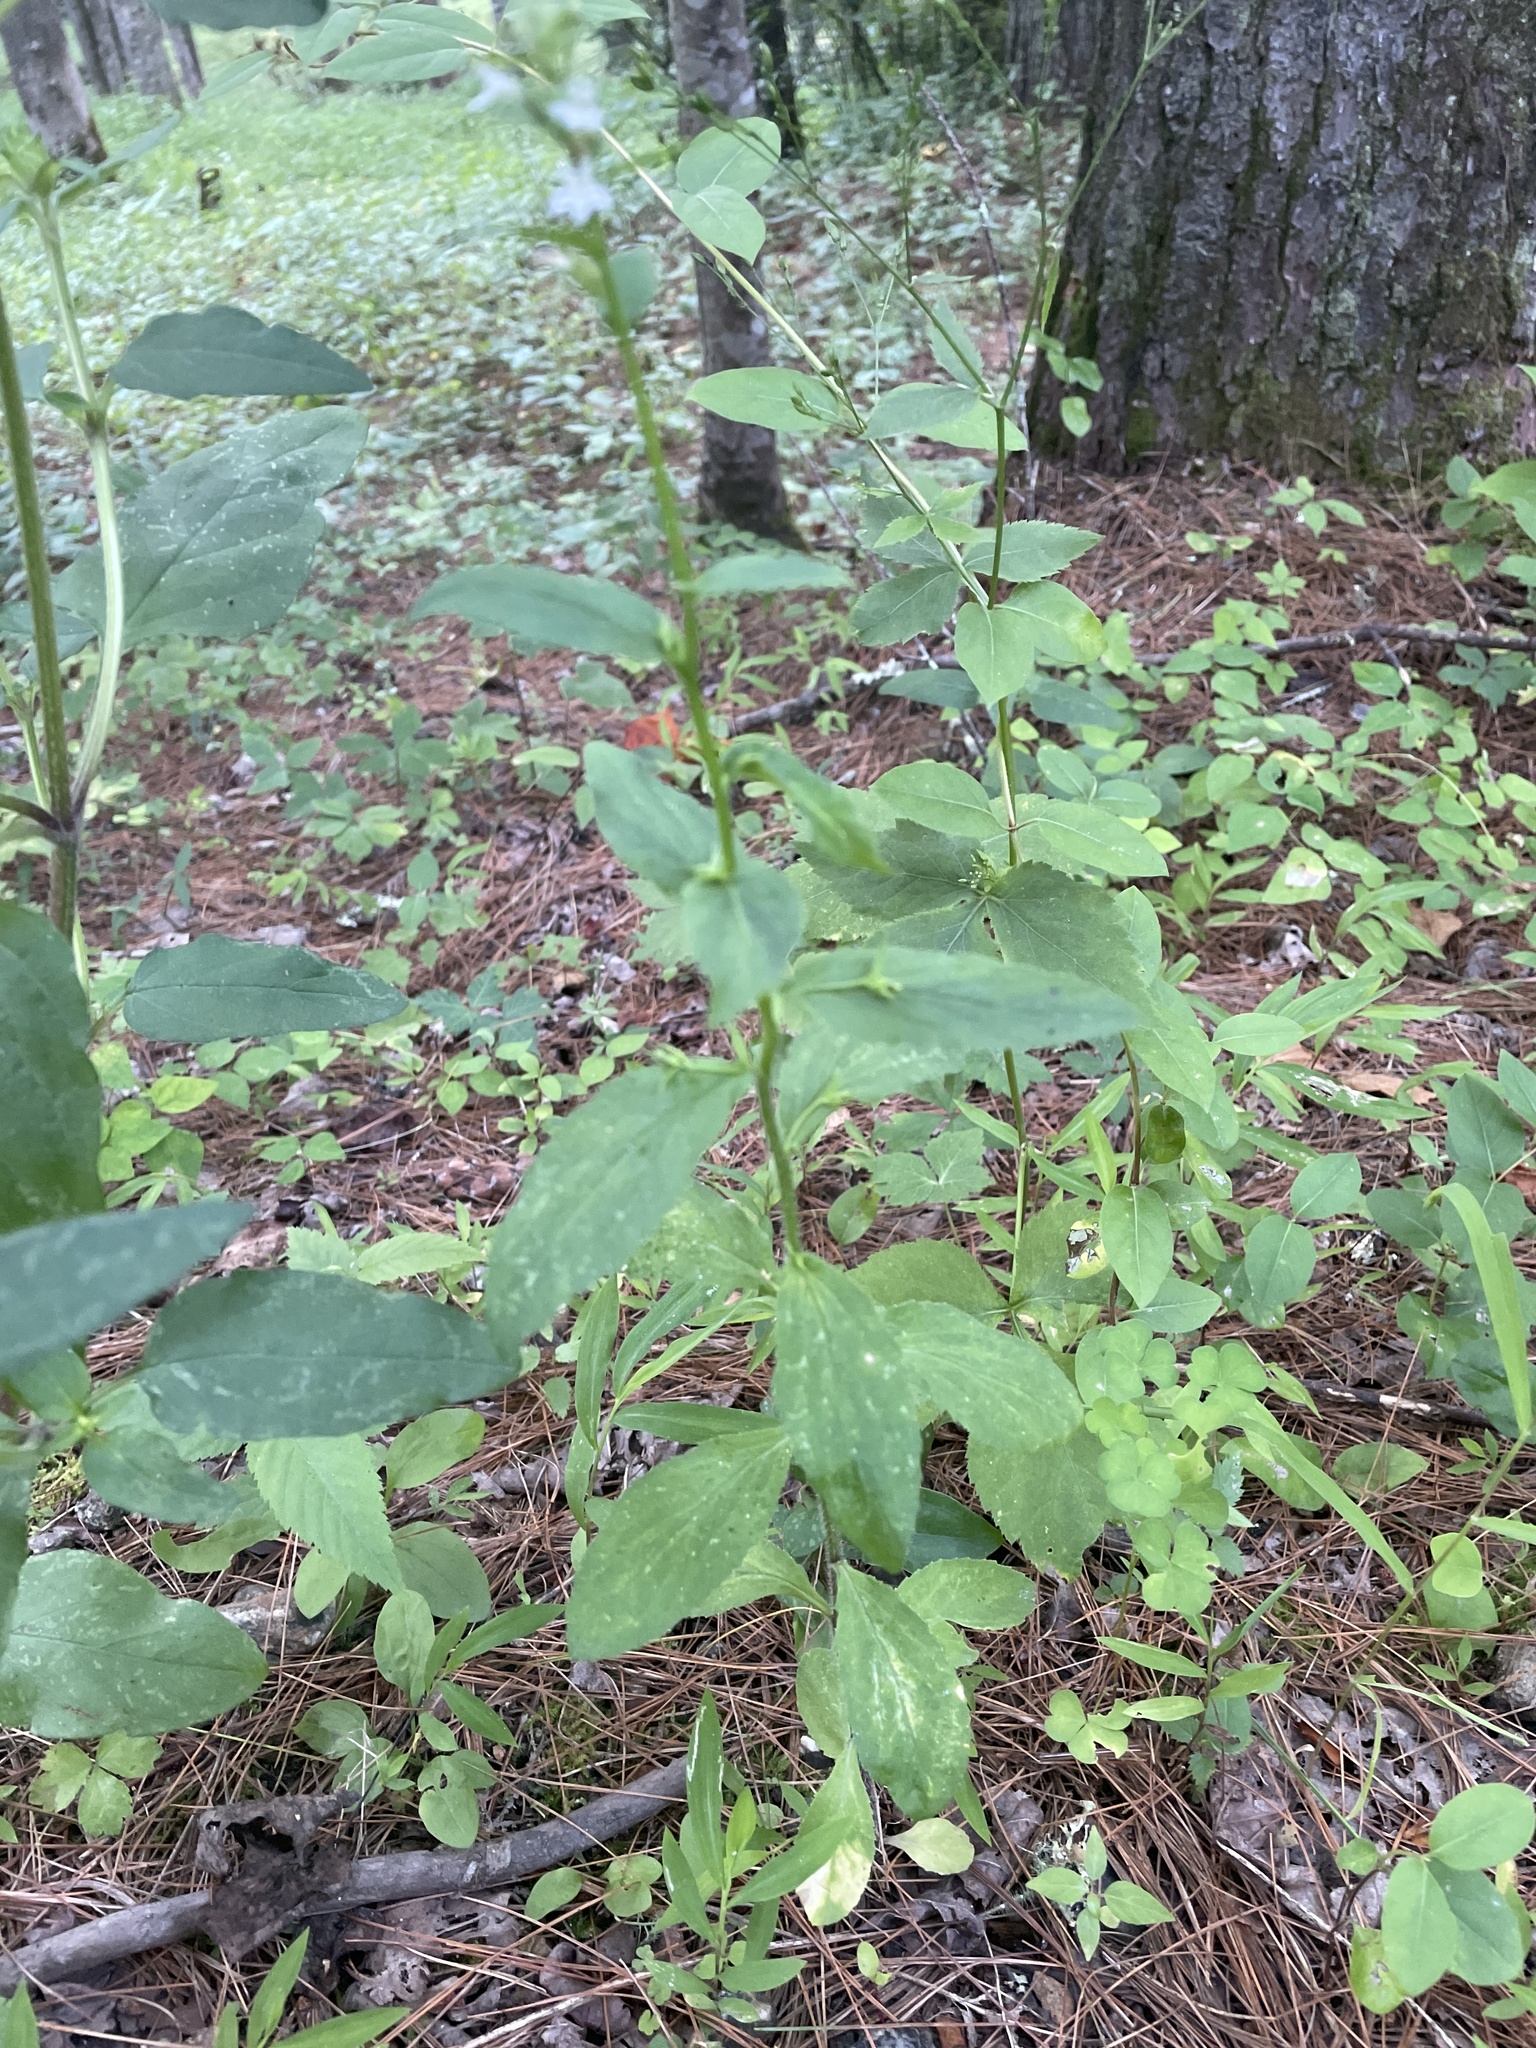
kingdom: Plantae
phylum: Tracheophyta
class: Magnoliopsida
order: Asterales
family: Campanulaceae
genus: Lobelia
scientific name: Lobelia inflata
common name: Indian tobacco
